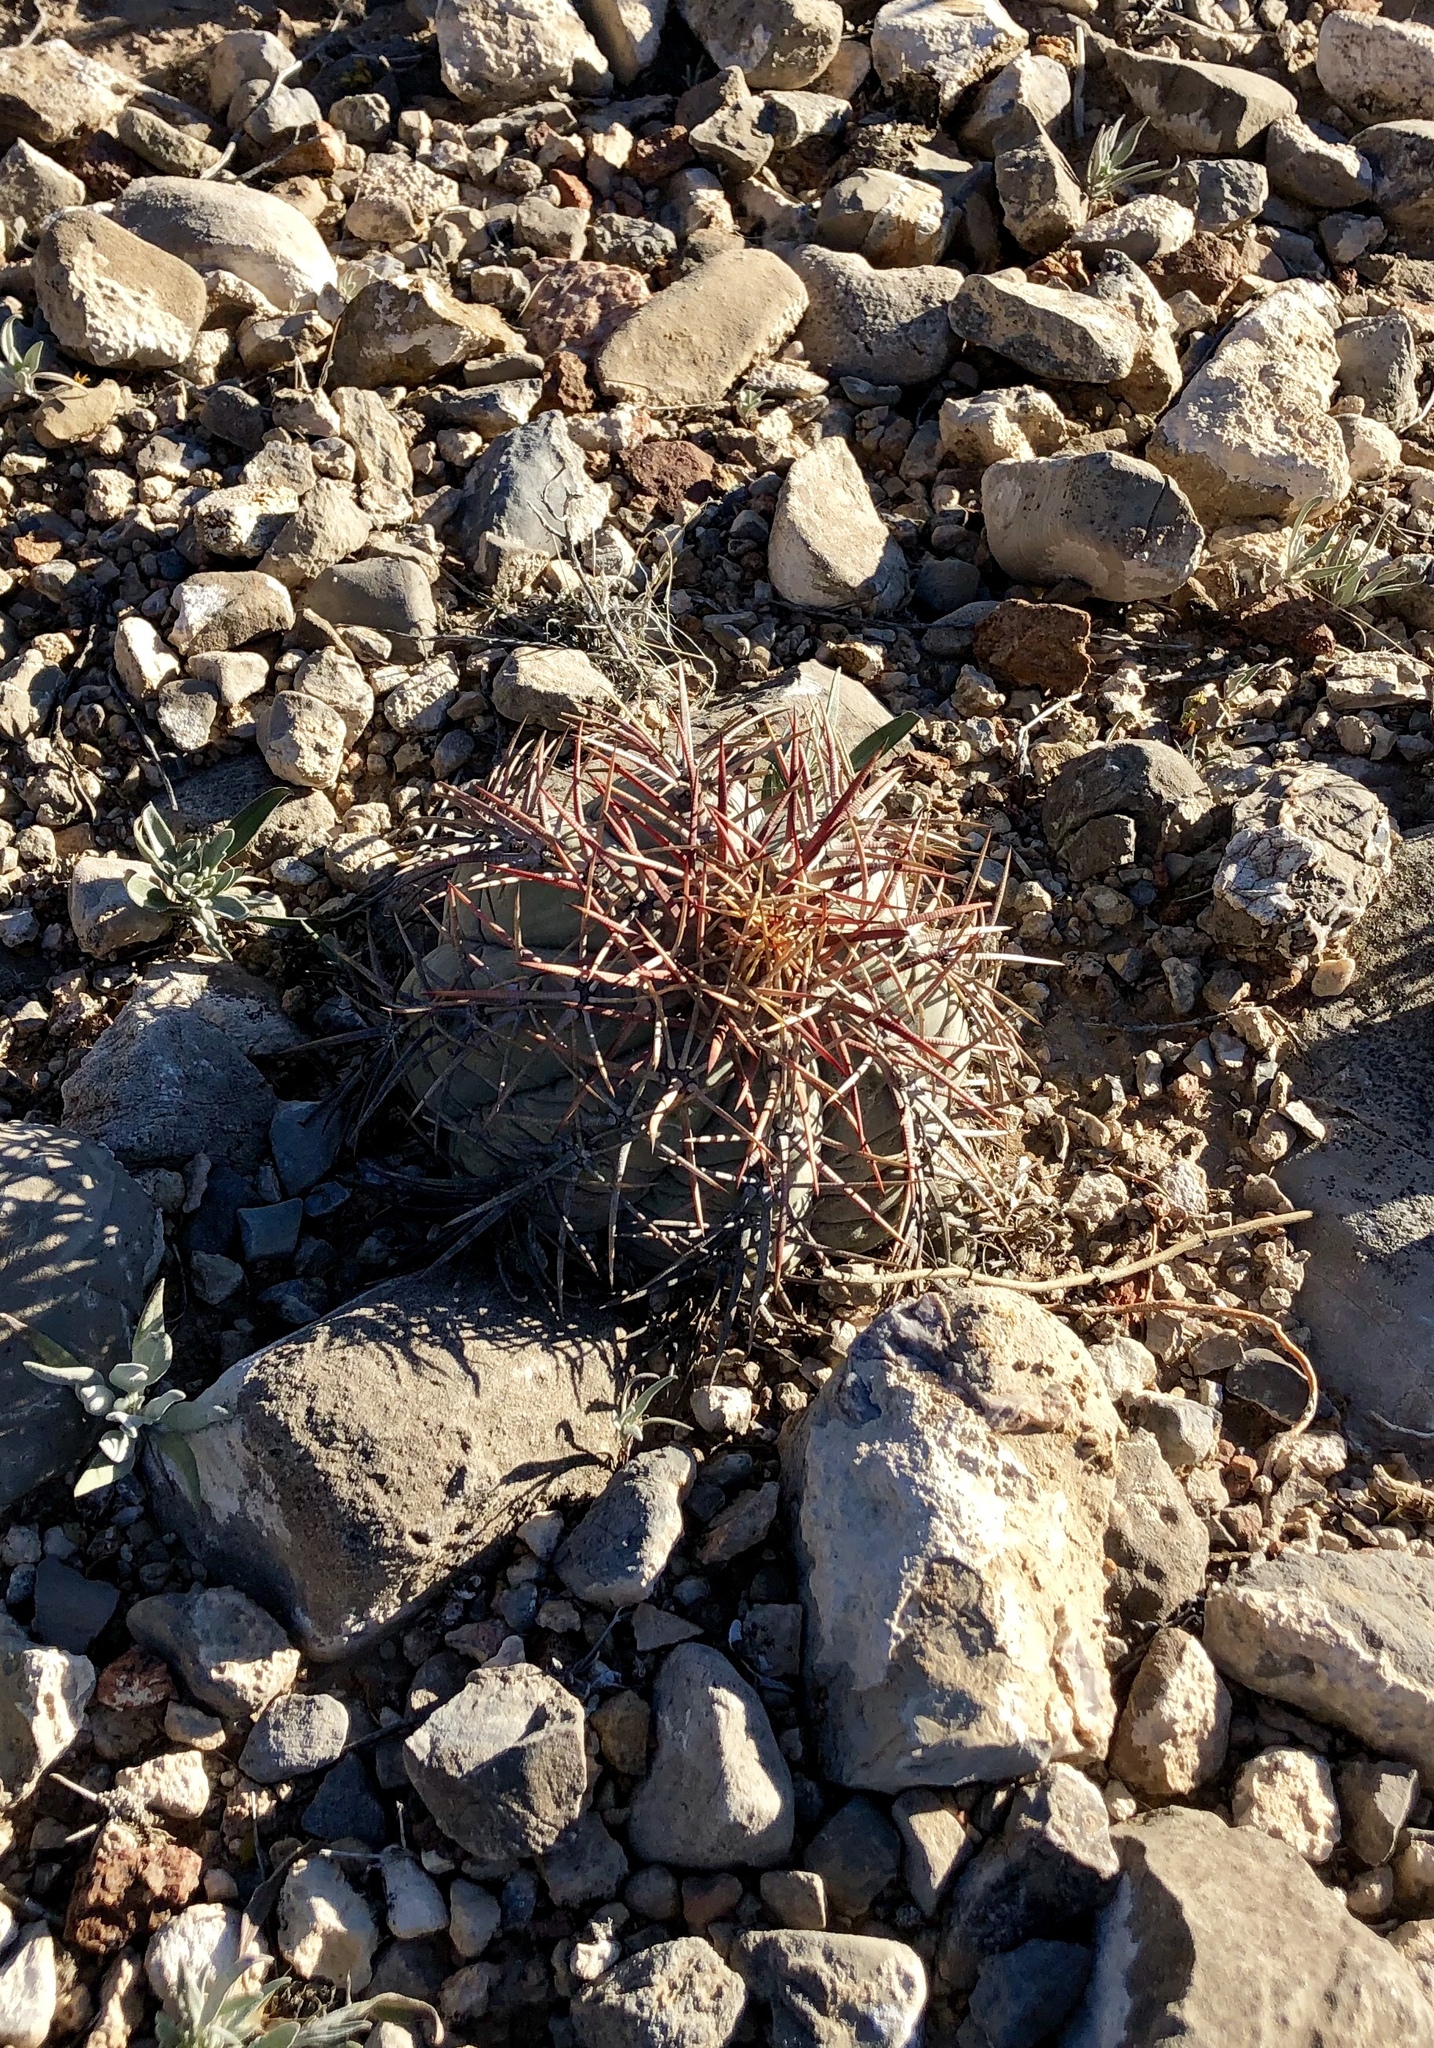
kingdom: Plantae
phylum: Tracheophyta
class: Magnoliopsida
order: Caryophyllales
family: Cactaceae
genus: Echinocactus
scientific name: Echinocactus horizonthalonius
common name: Devilshead
